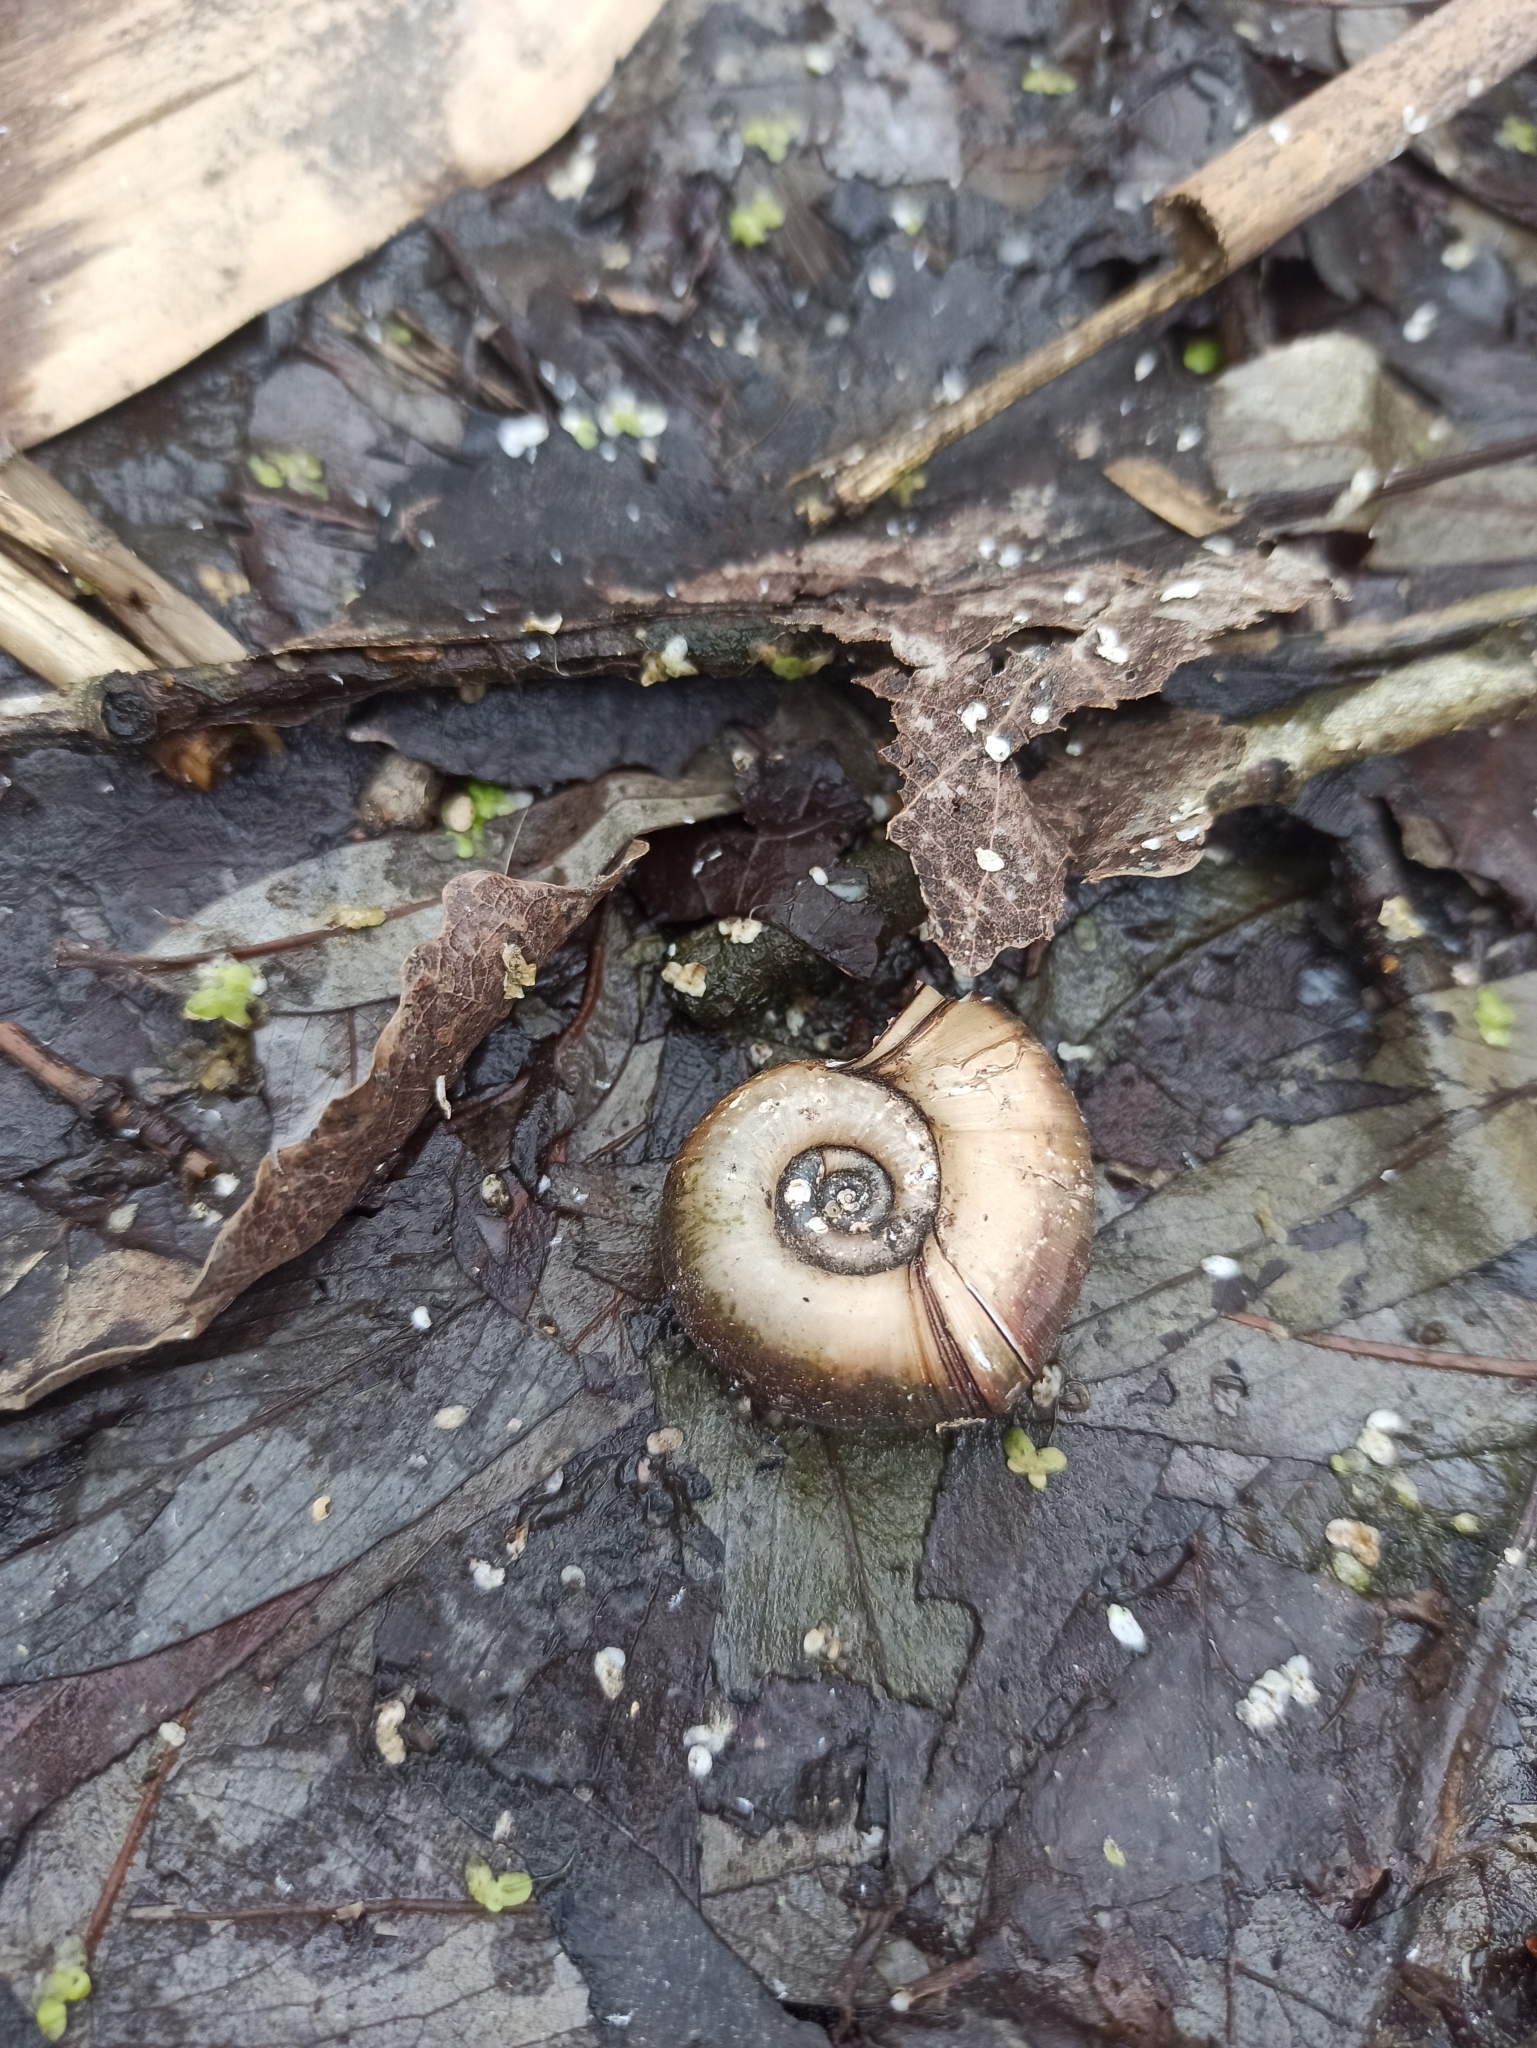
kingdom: Animalia
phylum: Mollusca
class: Gastropoda
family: Planorbidae
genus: Planorbarius
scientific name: Planorbarius corneus
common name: Great ramshorn
